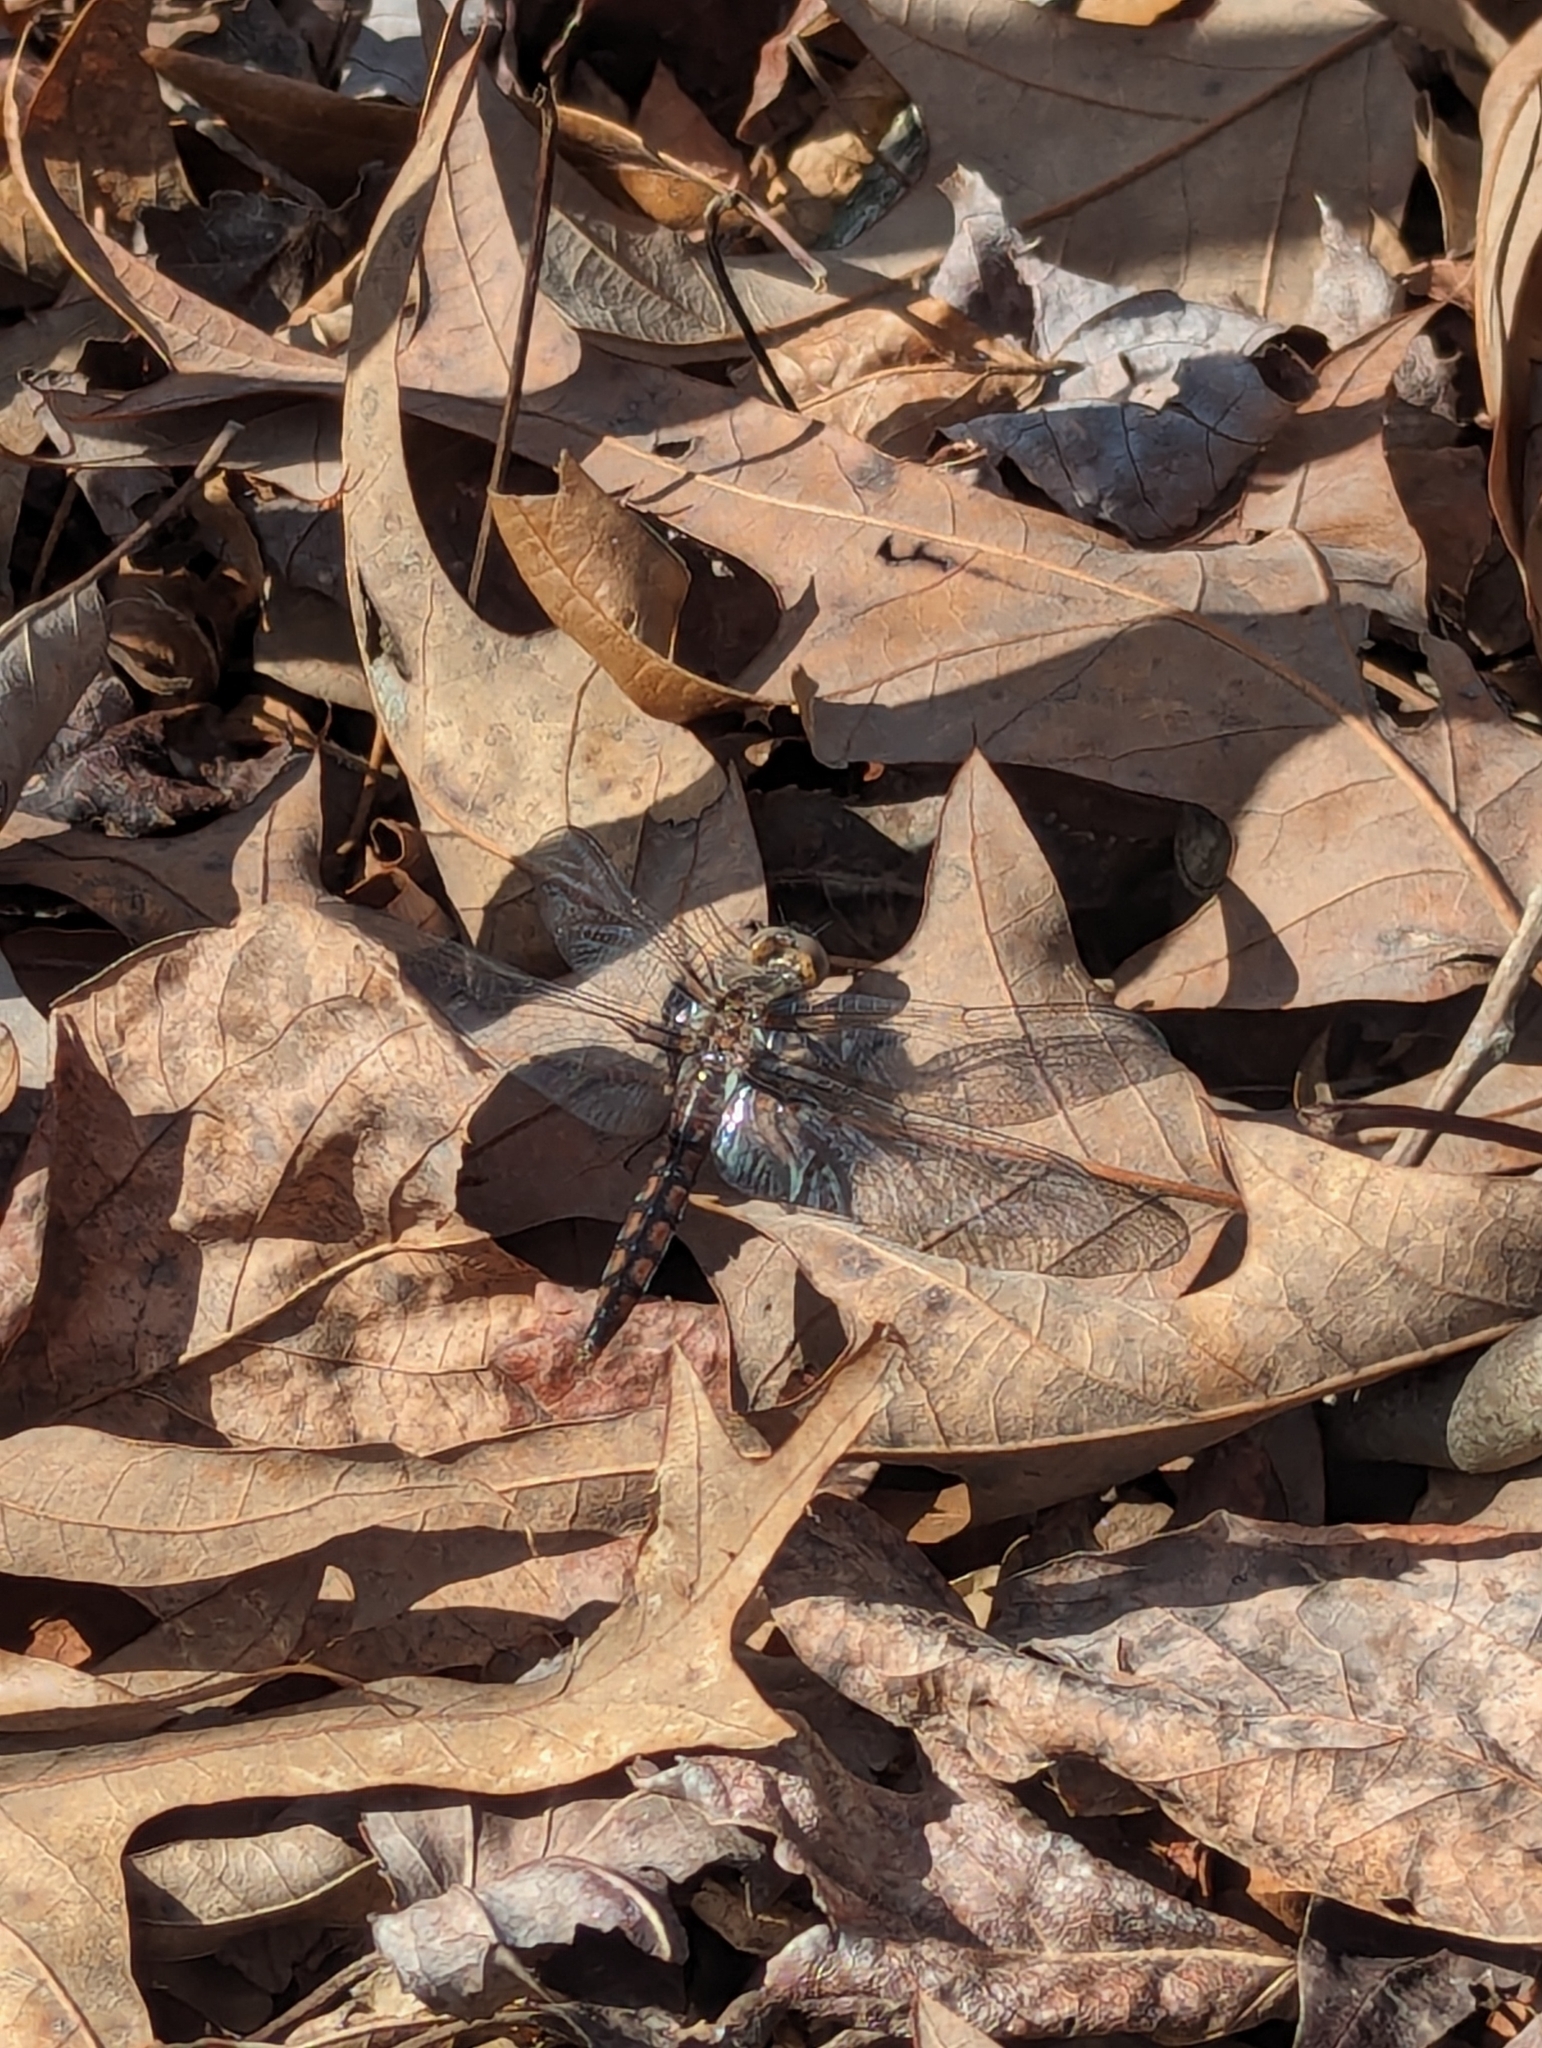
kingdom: Animalia
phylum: Arthropoda
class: Insecta
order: Odonata
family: Libellulidae
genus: Ladona
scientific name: Ladona deplanata
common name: Blue corporal
